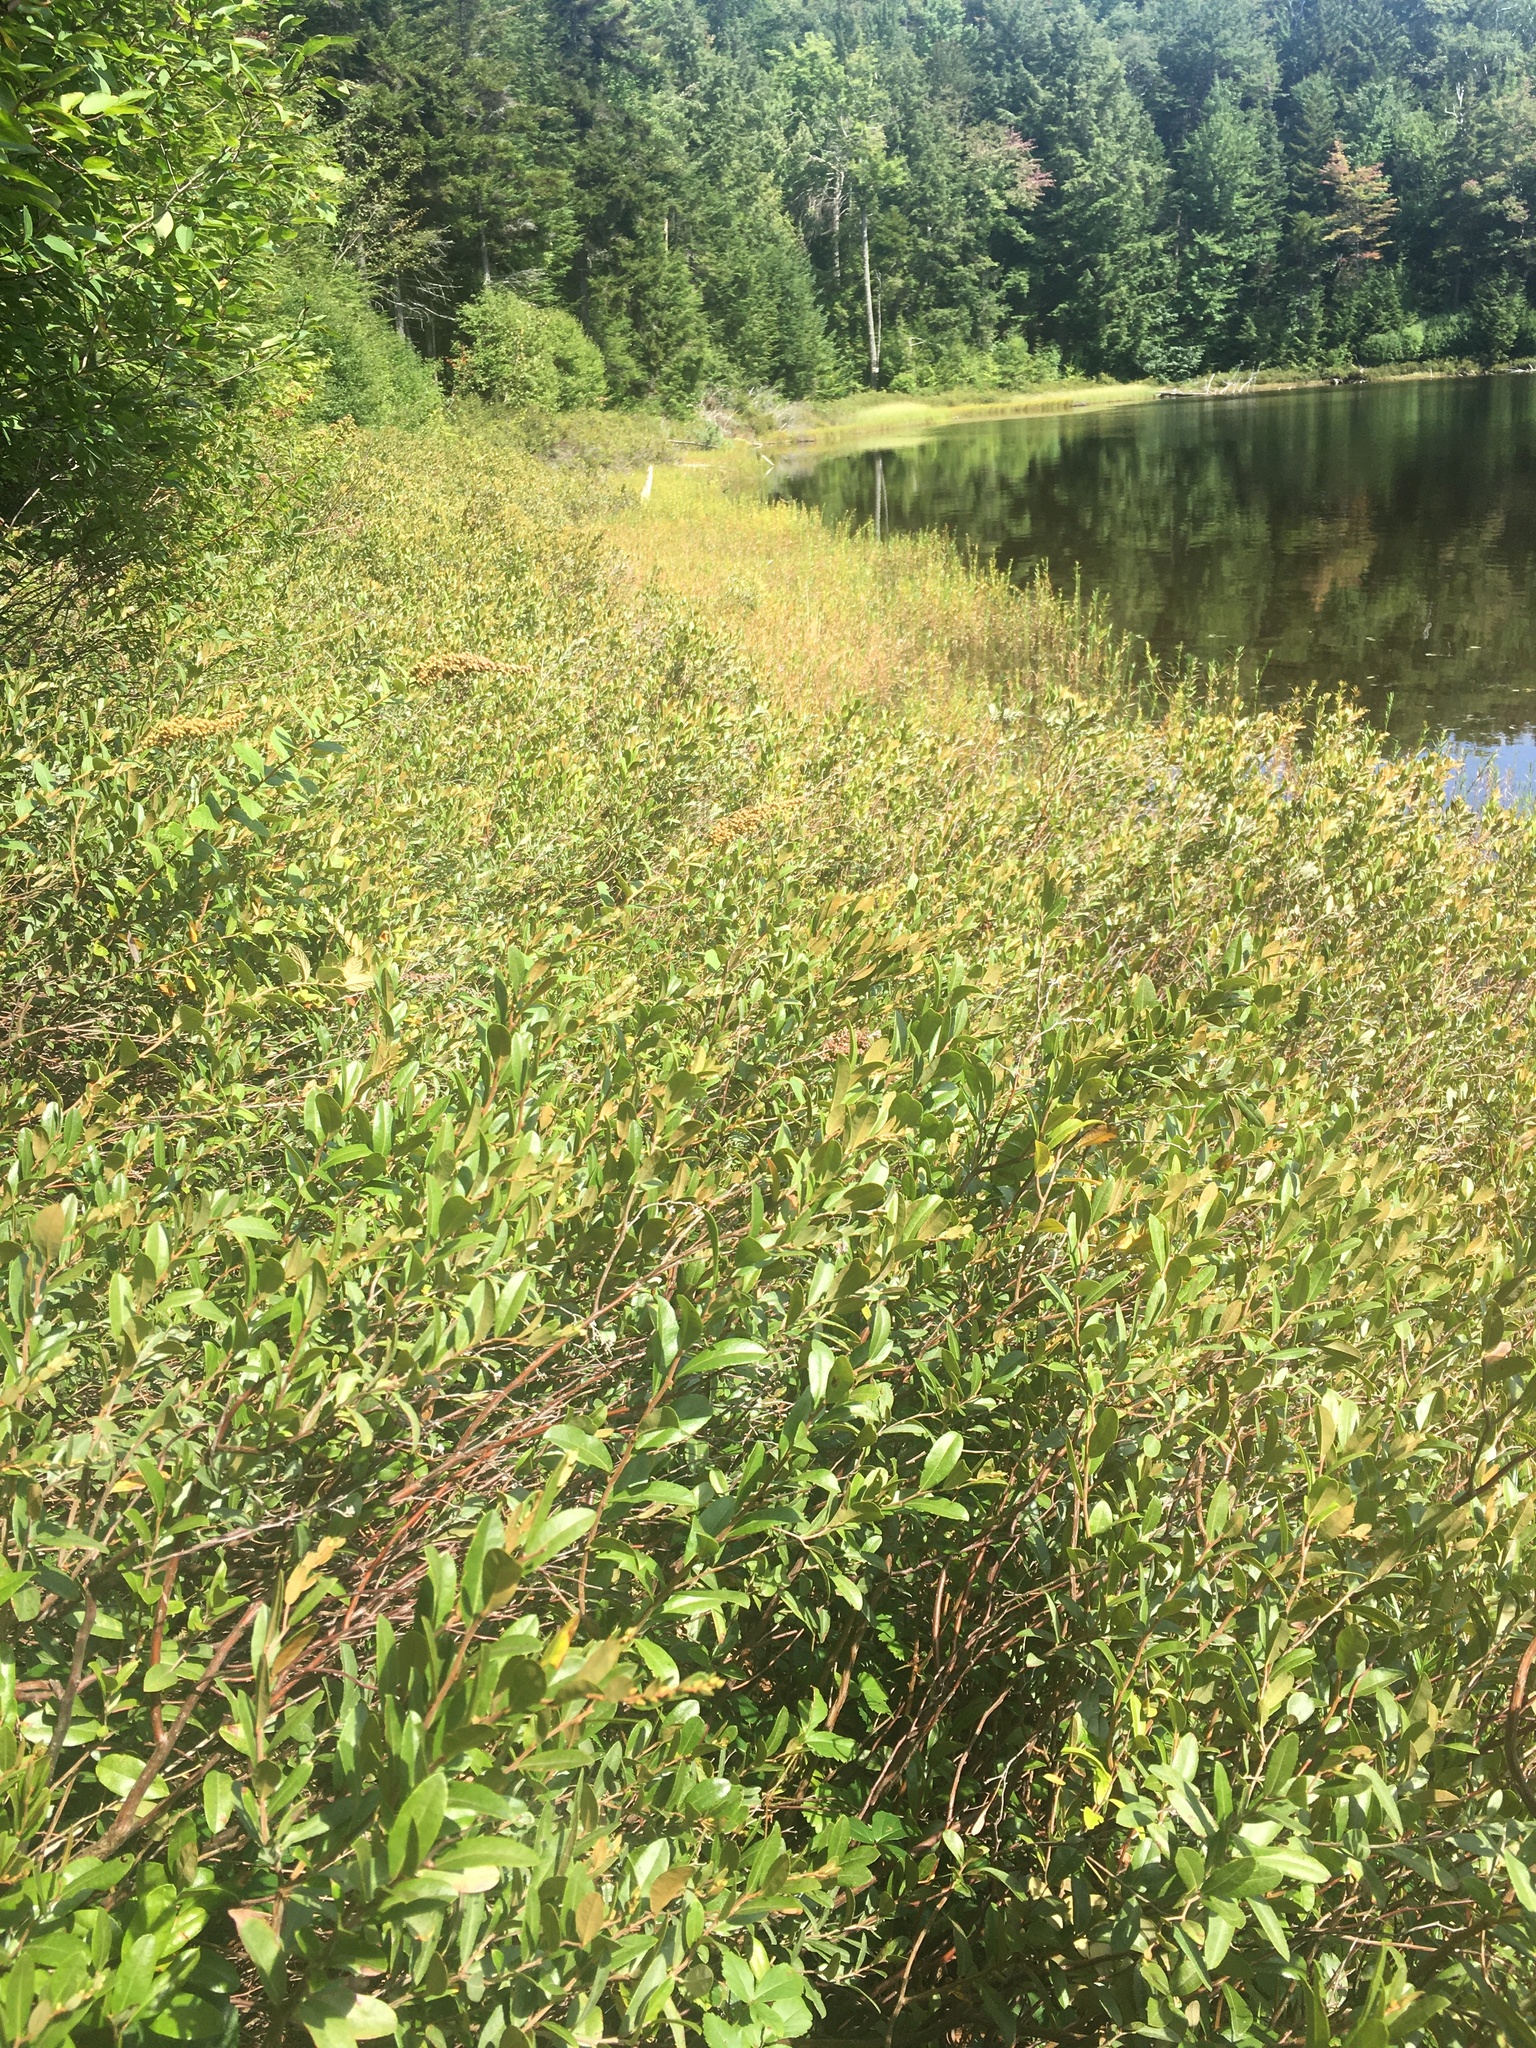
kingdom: Plantae
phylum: Tracheophyta
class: Magnoliopsida
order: Ericales
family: Ericaceae
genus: Chamaedaphne
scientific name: Chamaedaphne calyculata
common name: Leatherleaf
